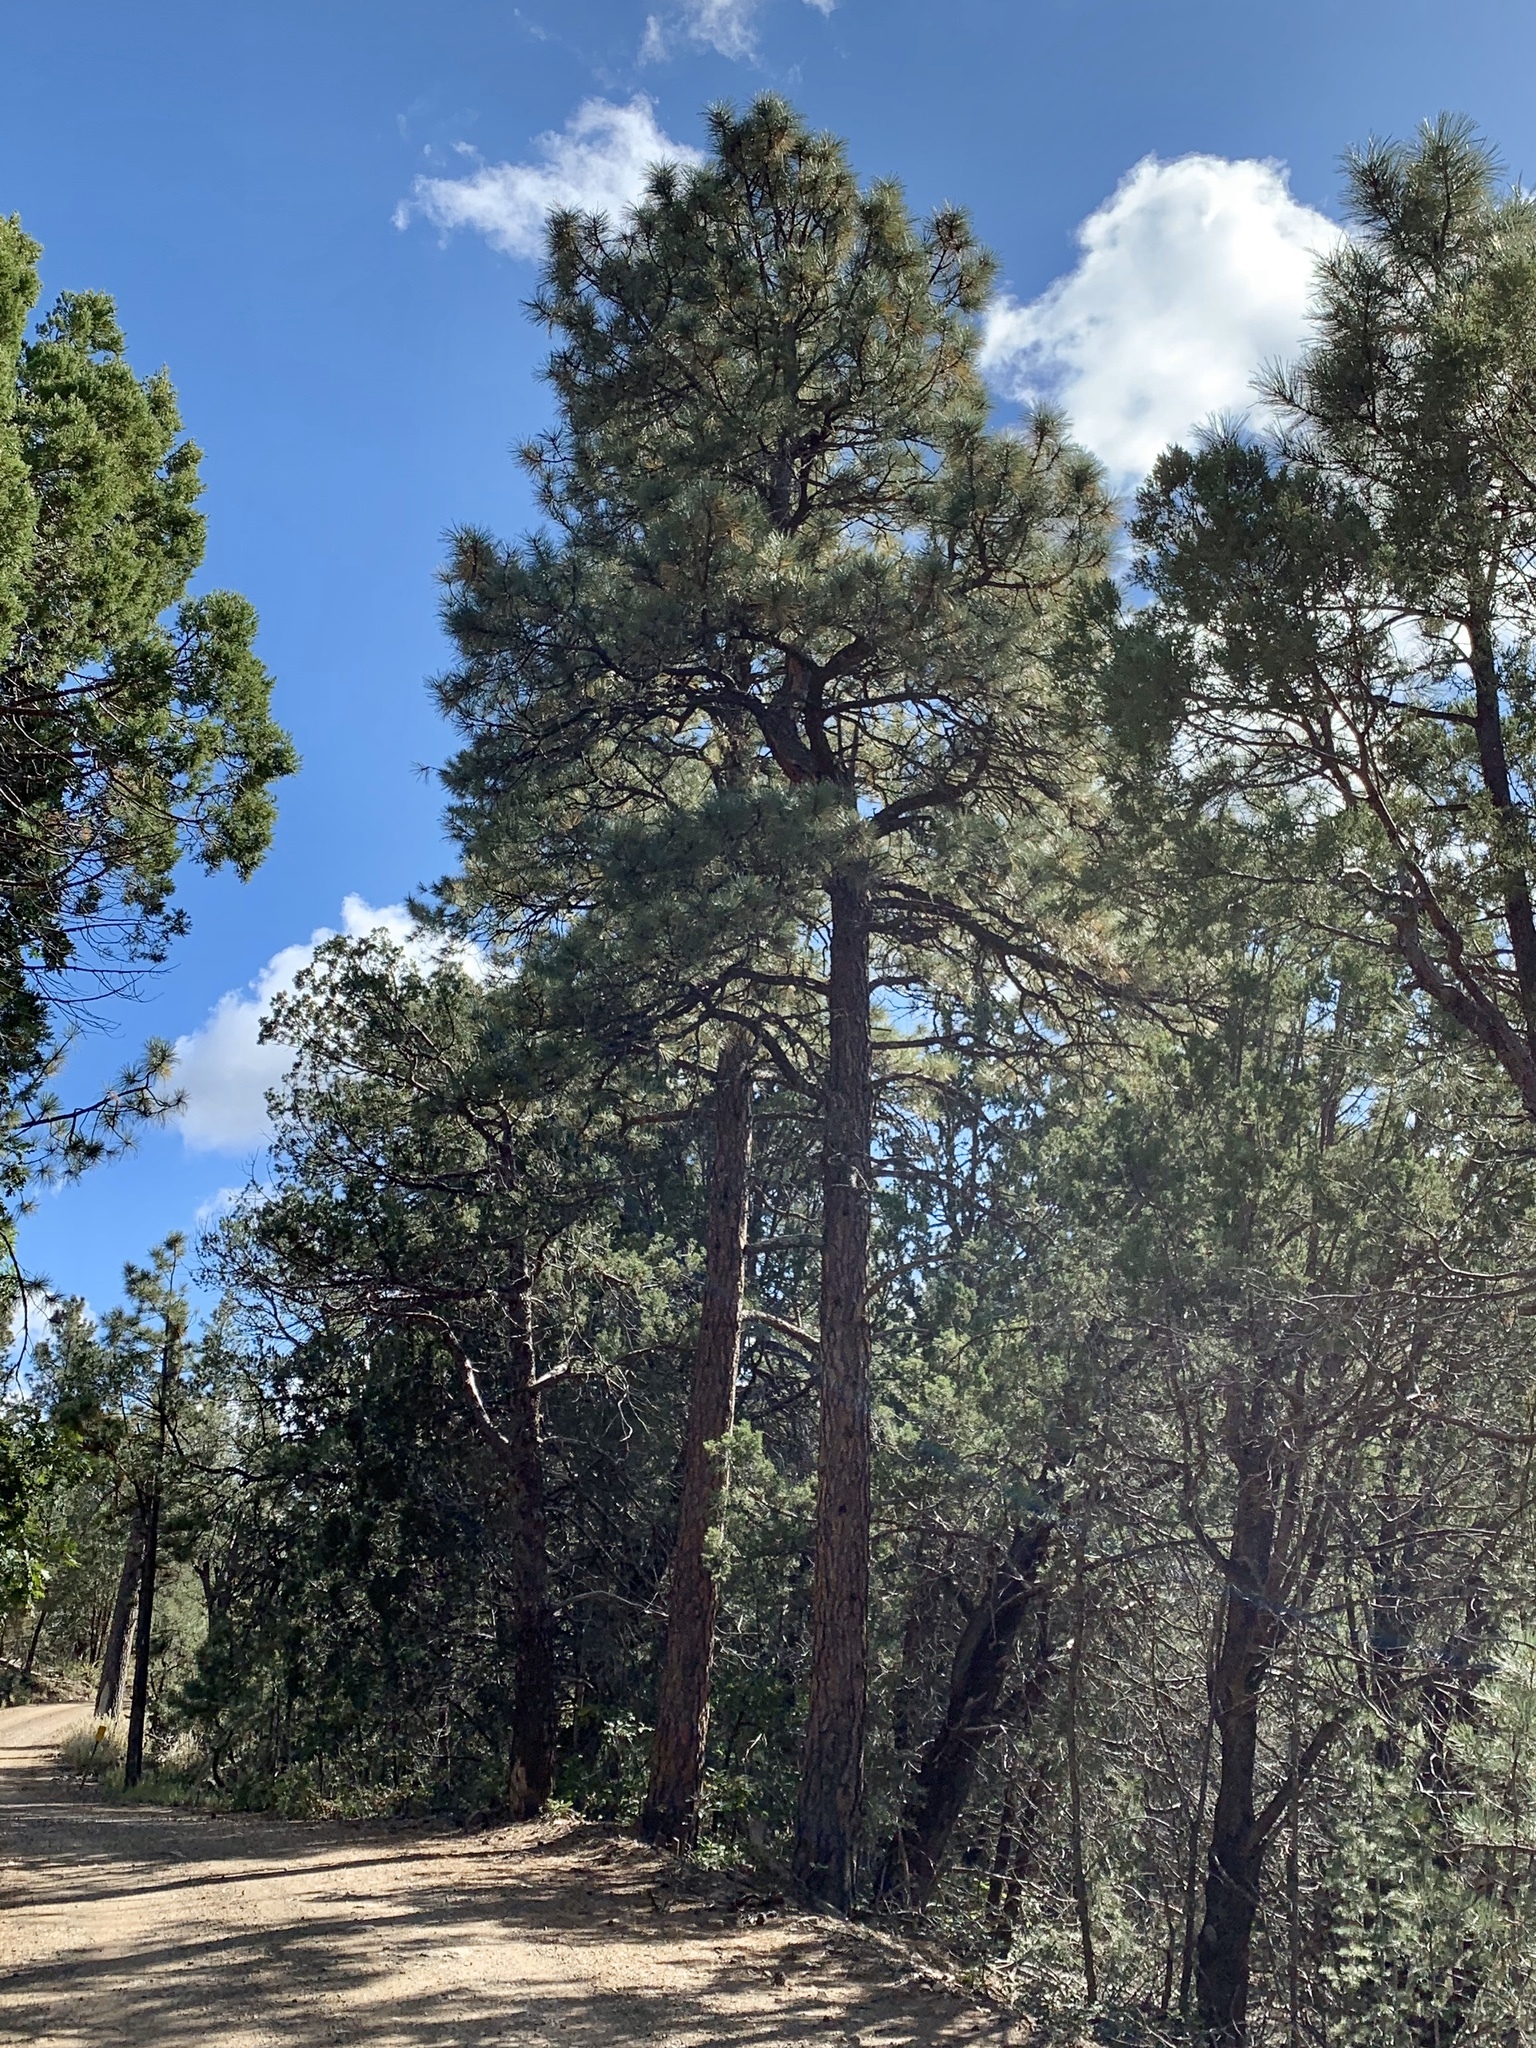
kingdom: Plantae
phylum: Tracheophyta
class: Pinopsida
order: Pinales
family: Pinaceae
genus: Pinus
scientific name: Pinus ponderosa
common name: Western yellow-pine
